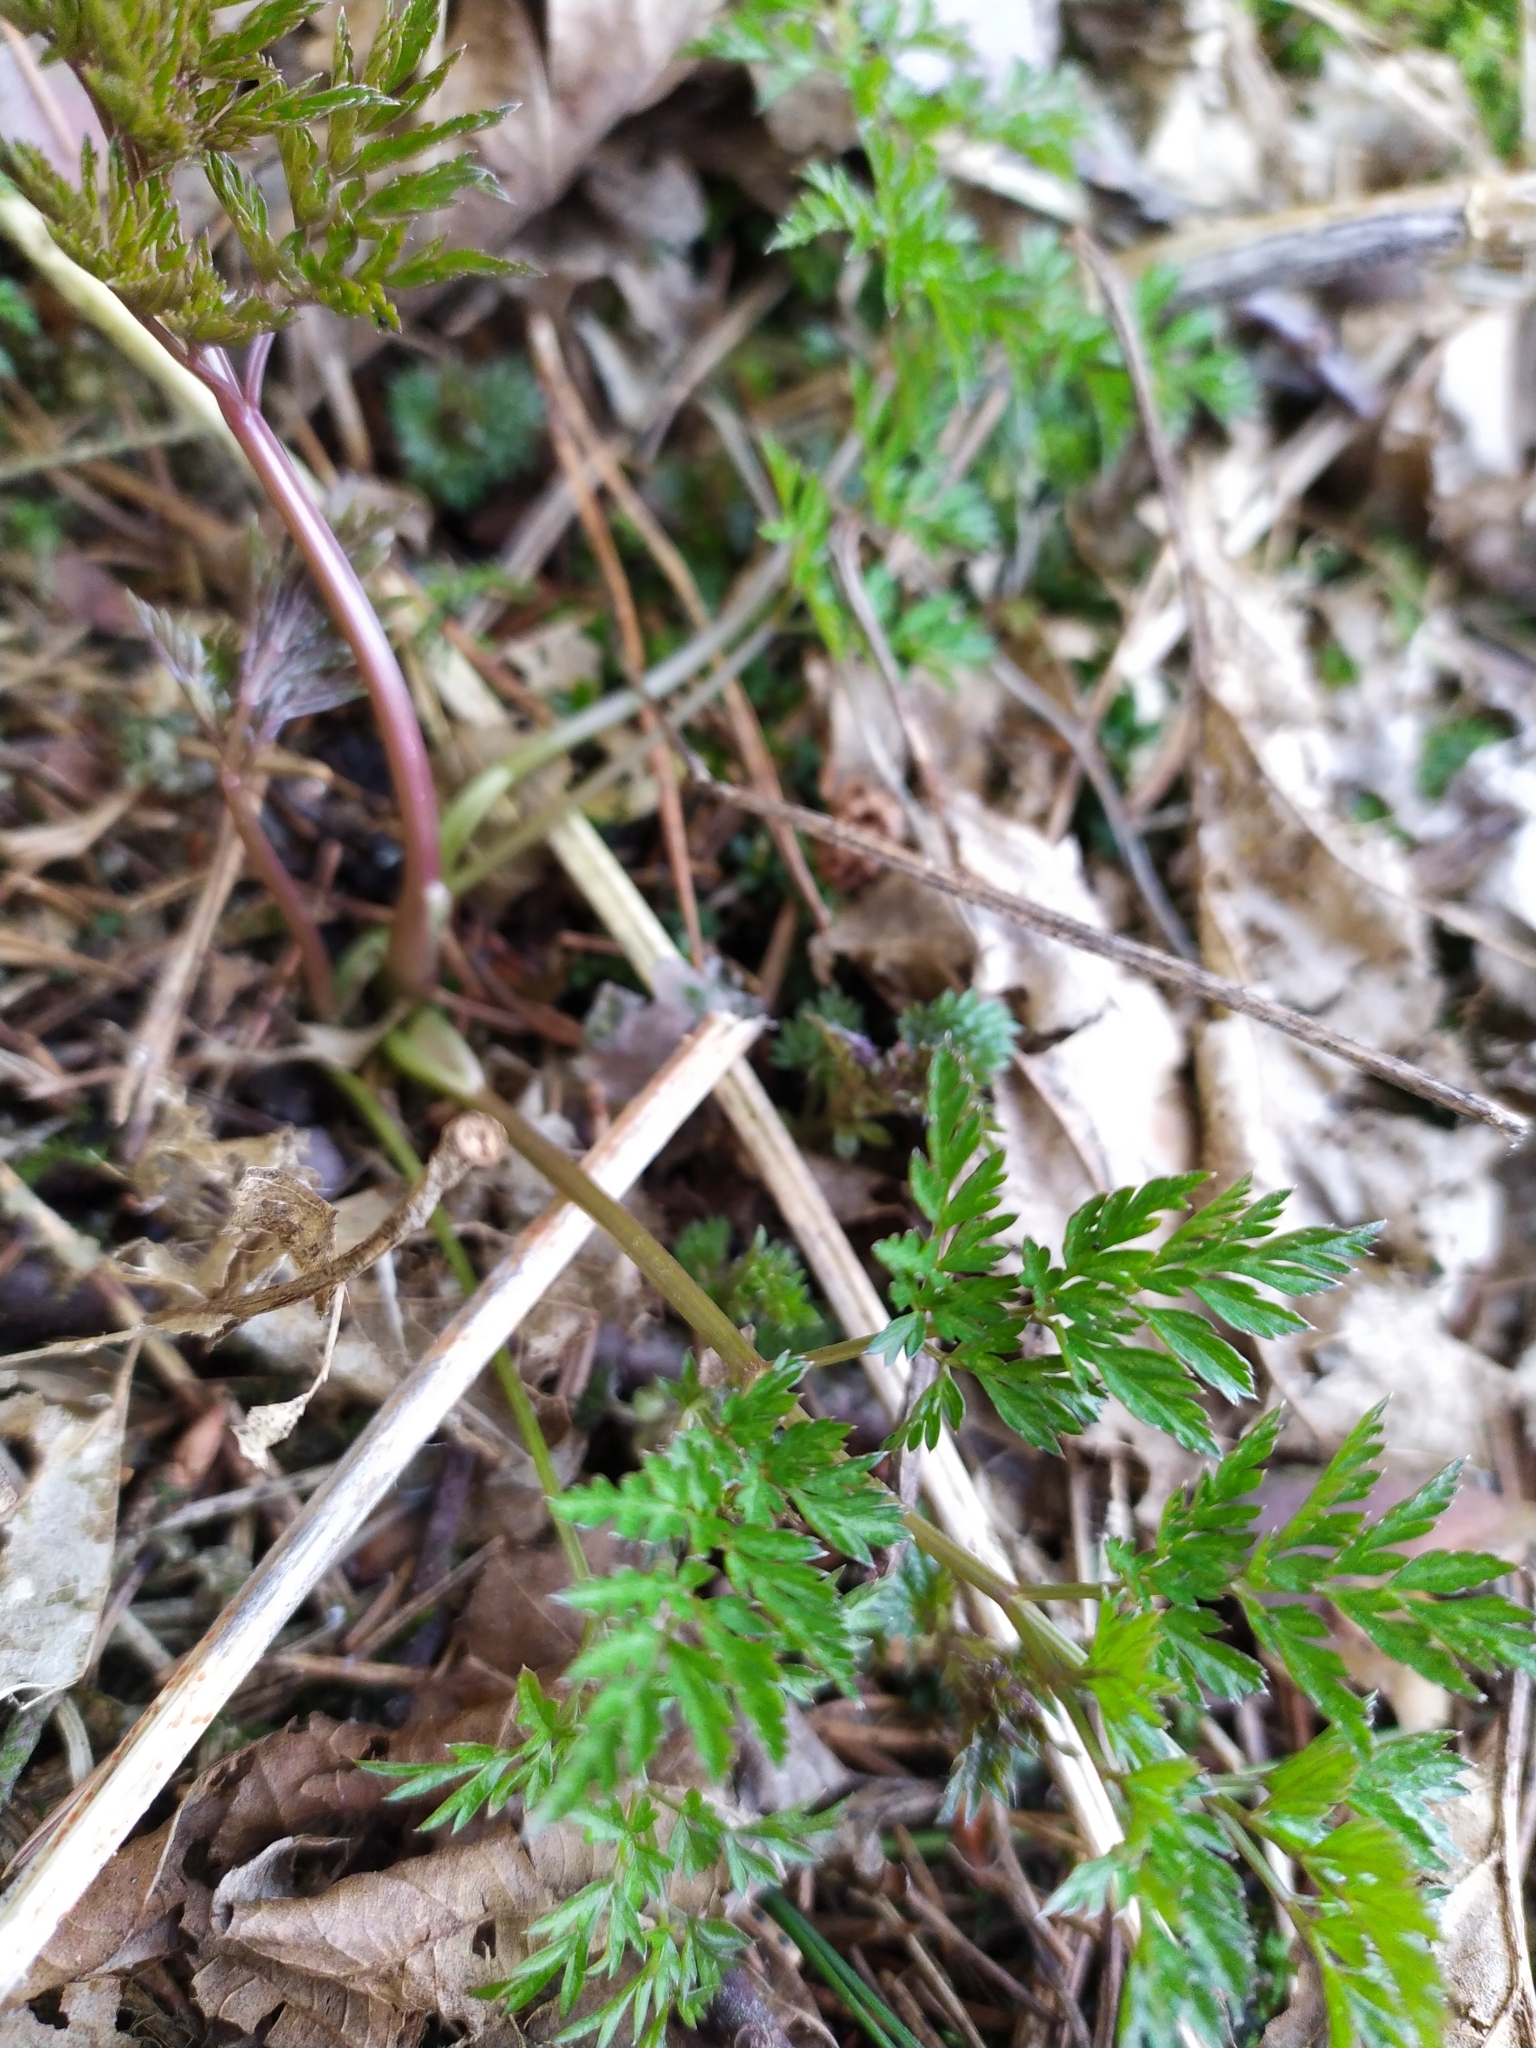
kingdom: Plantae
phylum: Tracheophyta
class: Magnoliopsida
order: Apiales
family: Apiaceae
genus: Anthriscus
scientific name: Anthriscus sylvestris
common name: Cow parsley
